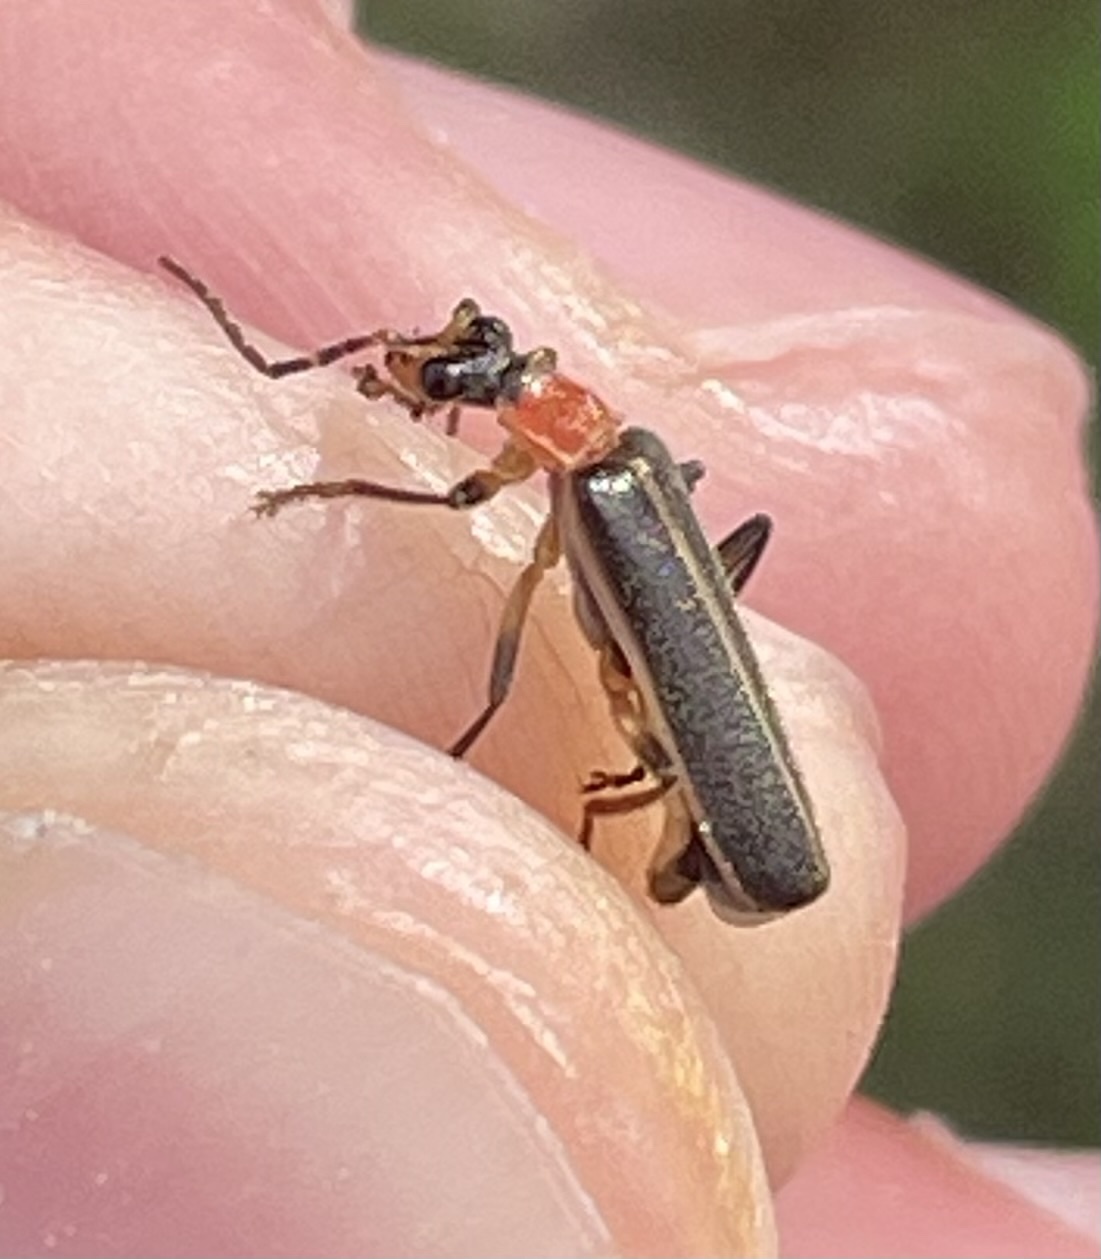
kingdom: Animalia
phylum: Arthropoda
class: Insecta
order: Coleoptera
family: Cantharidae
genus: Podabrus
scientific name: Podabrus quadratus
